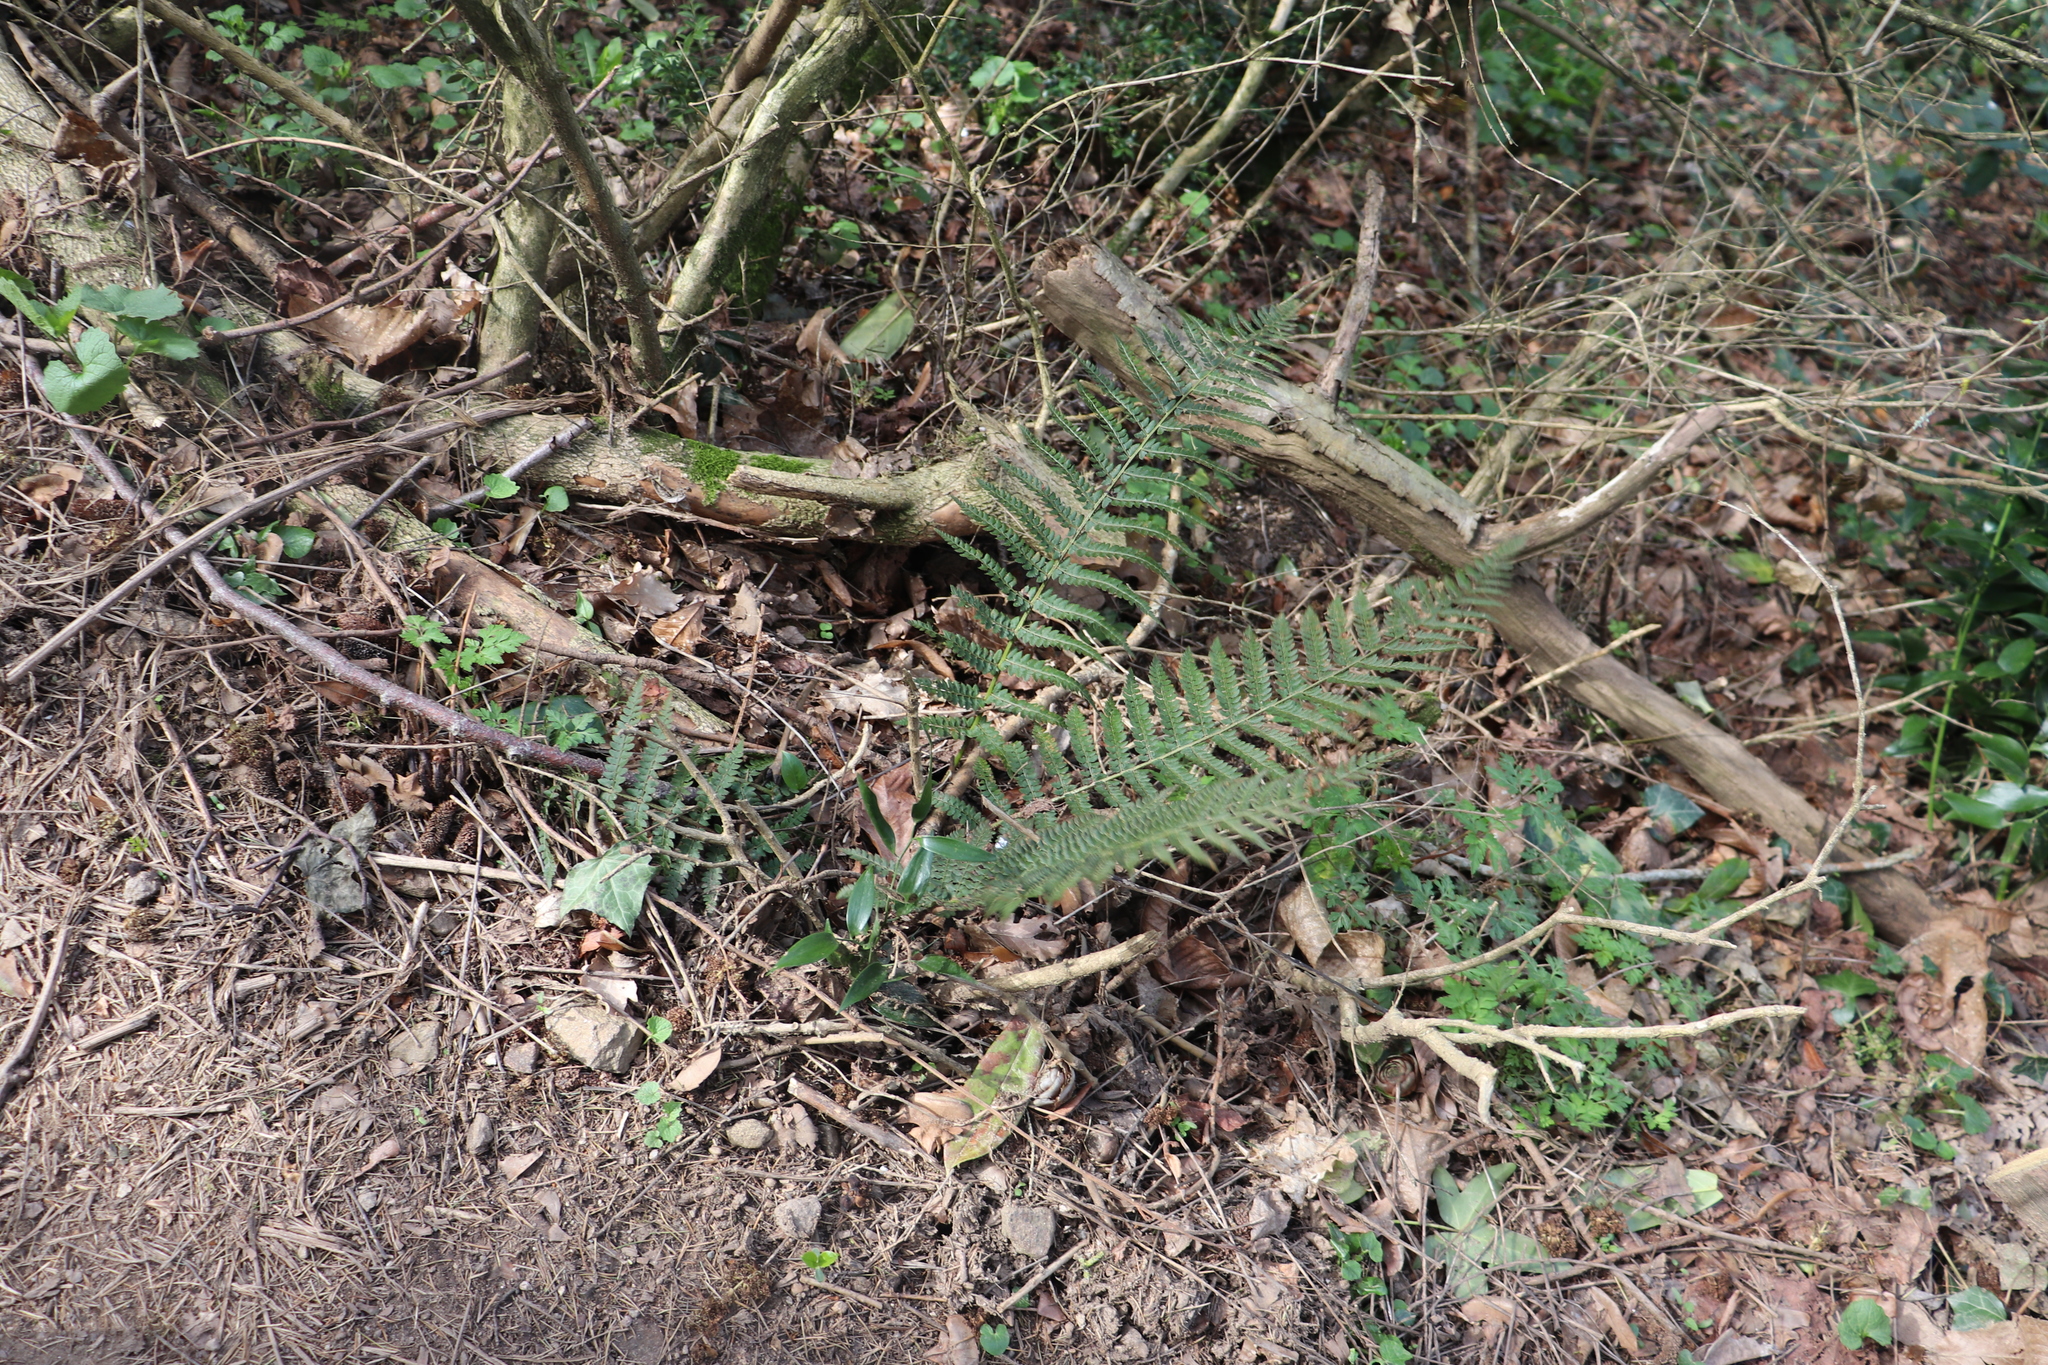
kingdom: Plantae
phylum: Tracheophyta
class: Polypodiopsida
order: Polypodiales
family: Dryopteridaceae
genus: Polystichum
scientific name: Polystichum setiferum
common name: Soft shield-fern
